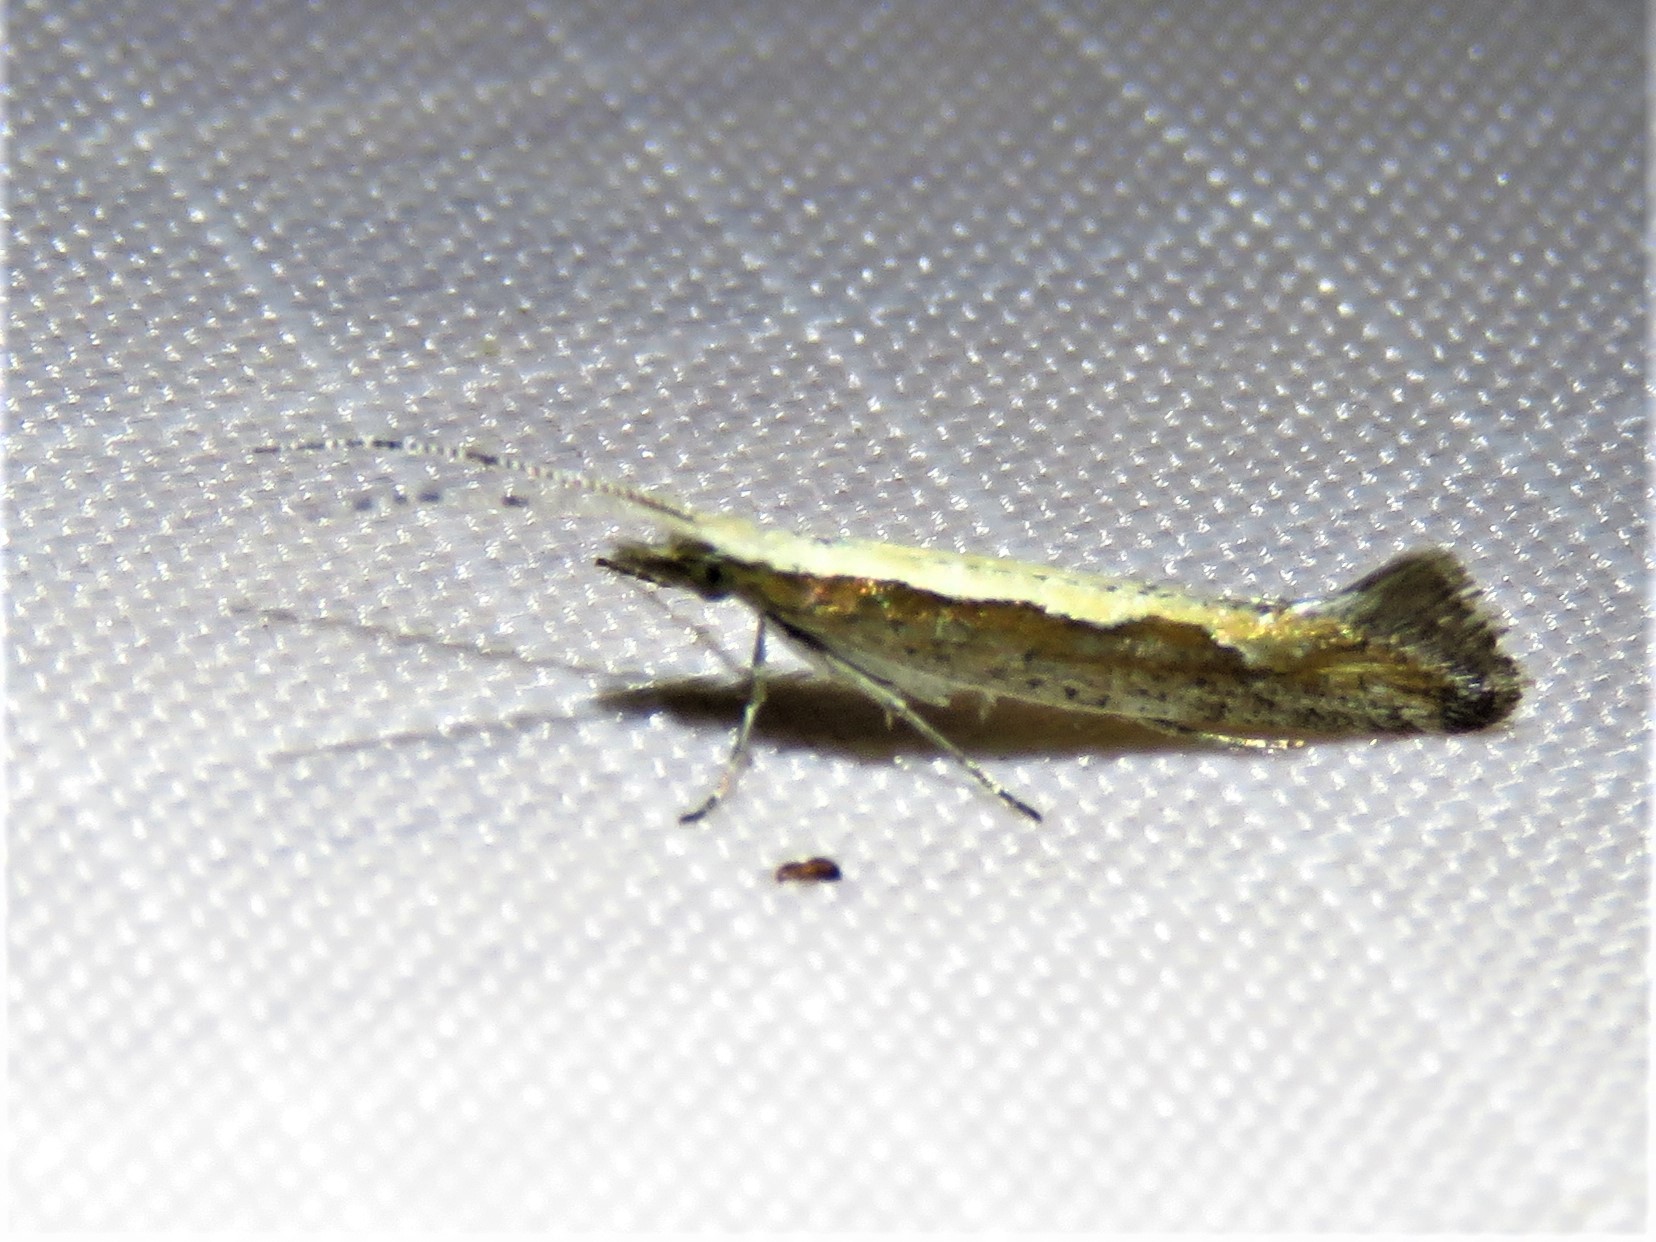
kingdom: Animalia
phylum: Arthropoda
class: Insecta
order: Lepidoptera
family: Plutellidae
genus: Plutella
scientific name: Plutella xylostella
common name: Diamond-back moth
